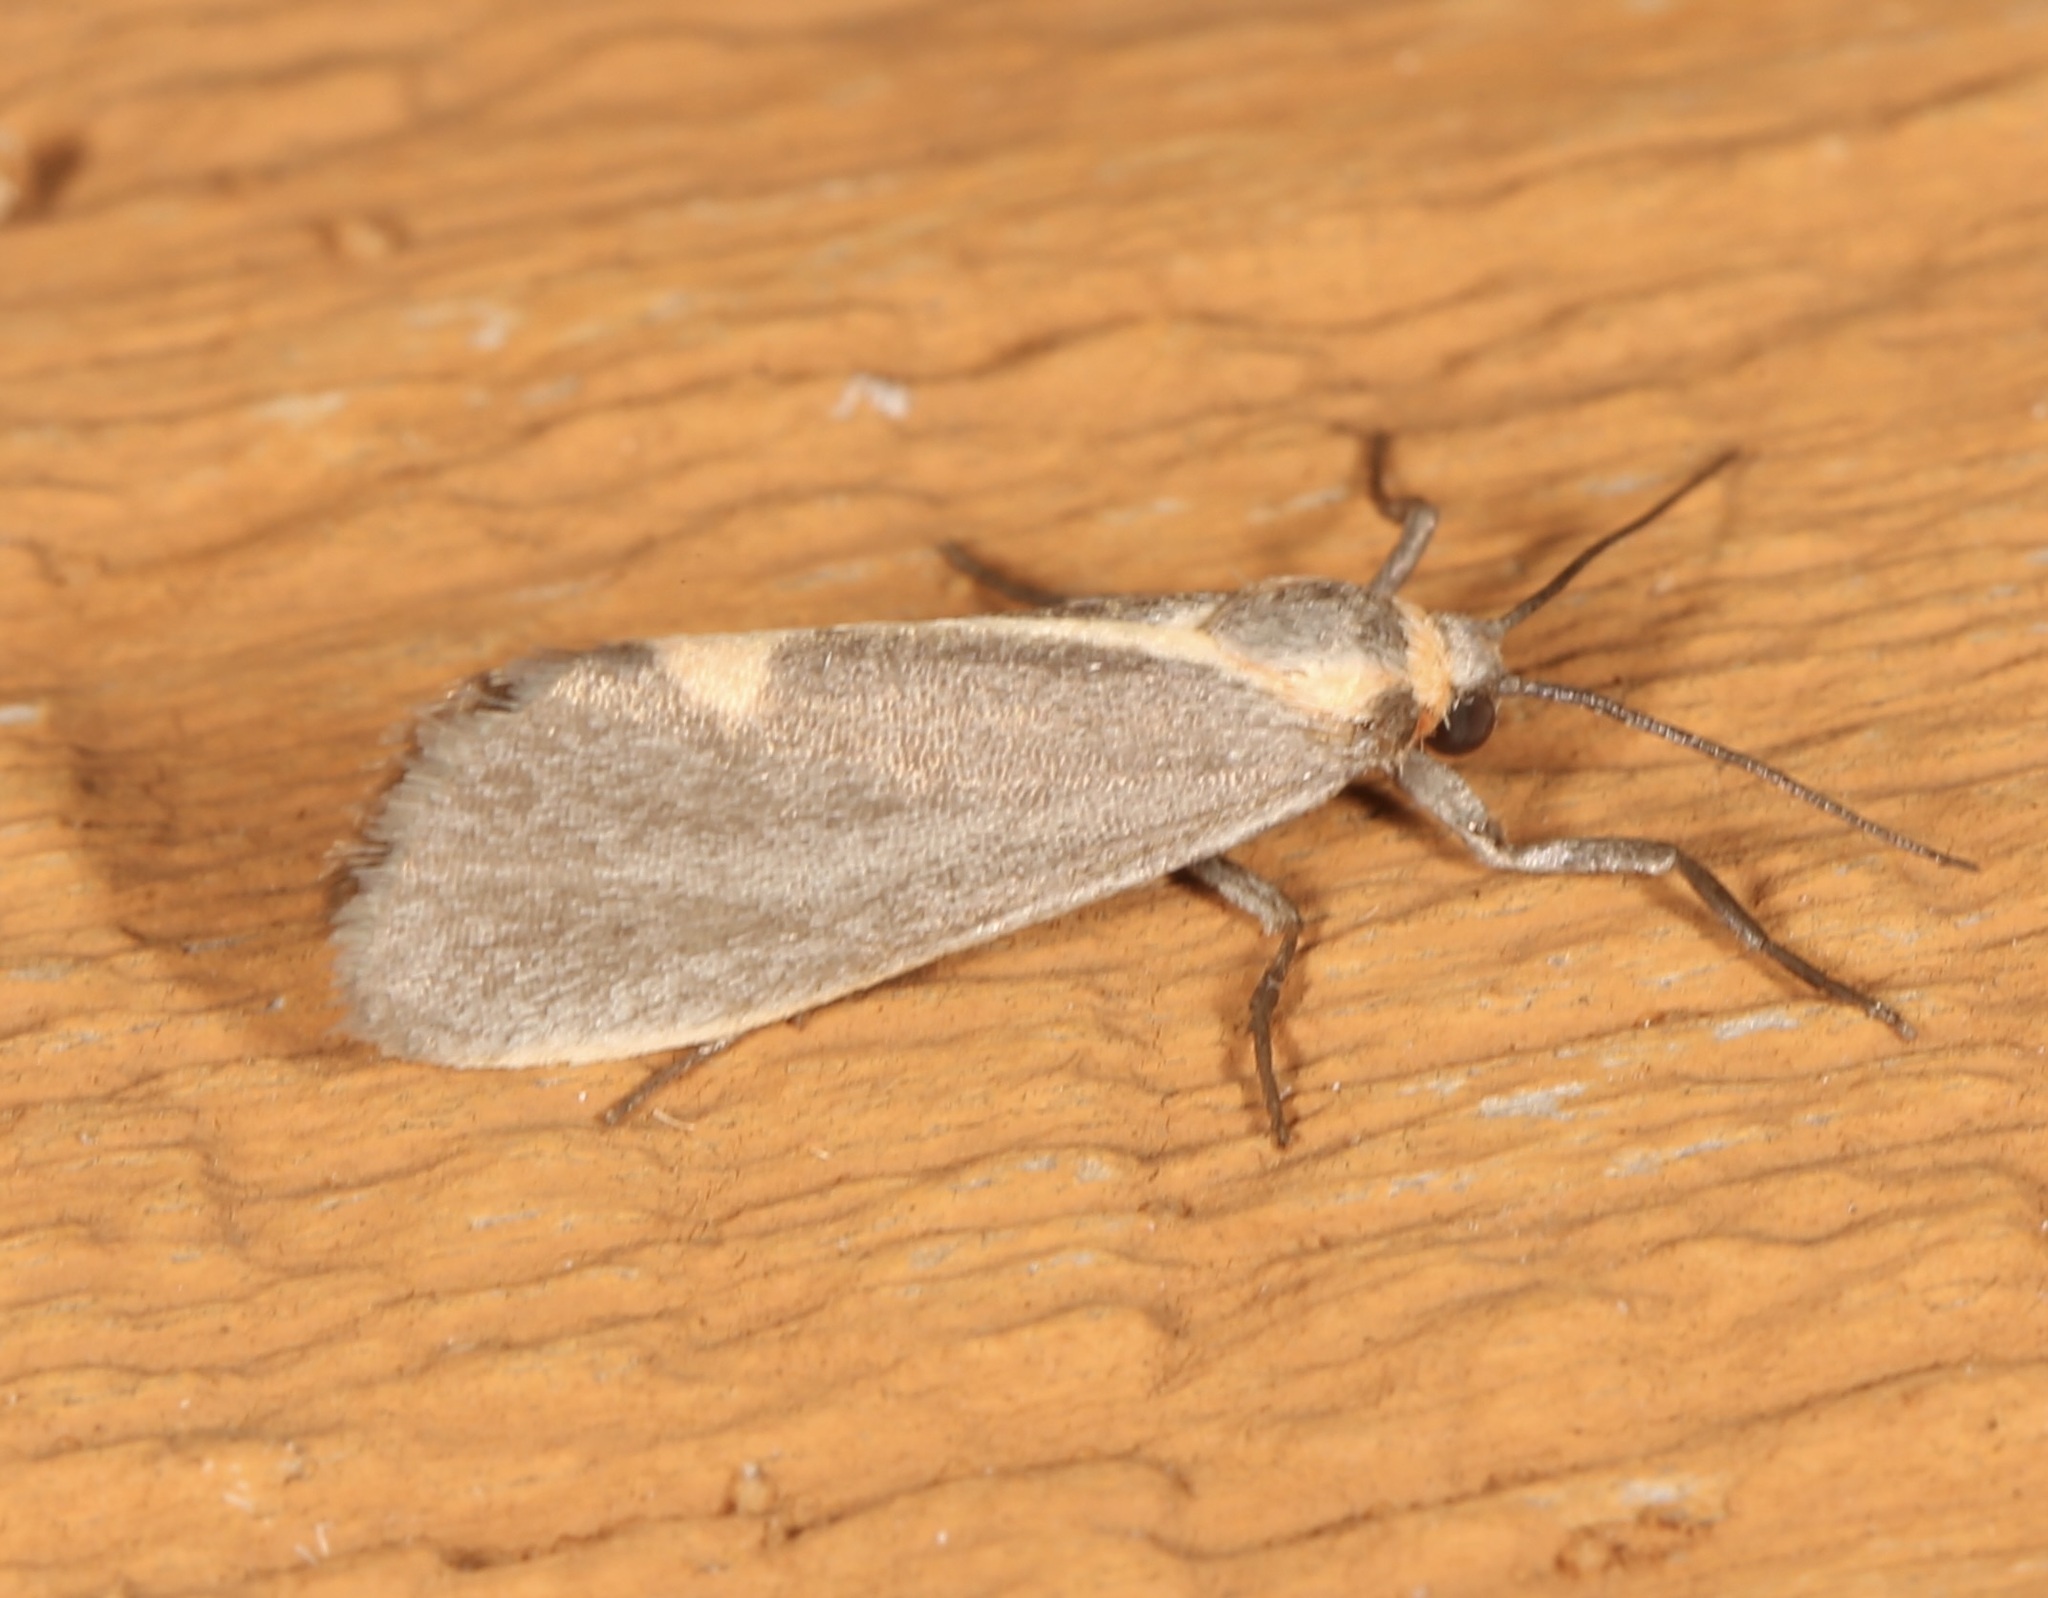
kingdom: Animalia
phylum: Arthropoda
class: Insecta
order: Lepidoptera
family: Erebidae
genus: Cisthene
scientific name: Cisthene plumbea
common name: Lead colored lichen moth
